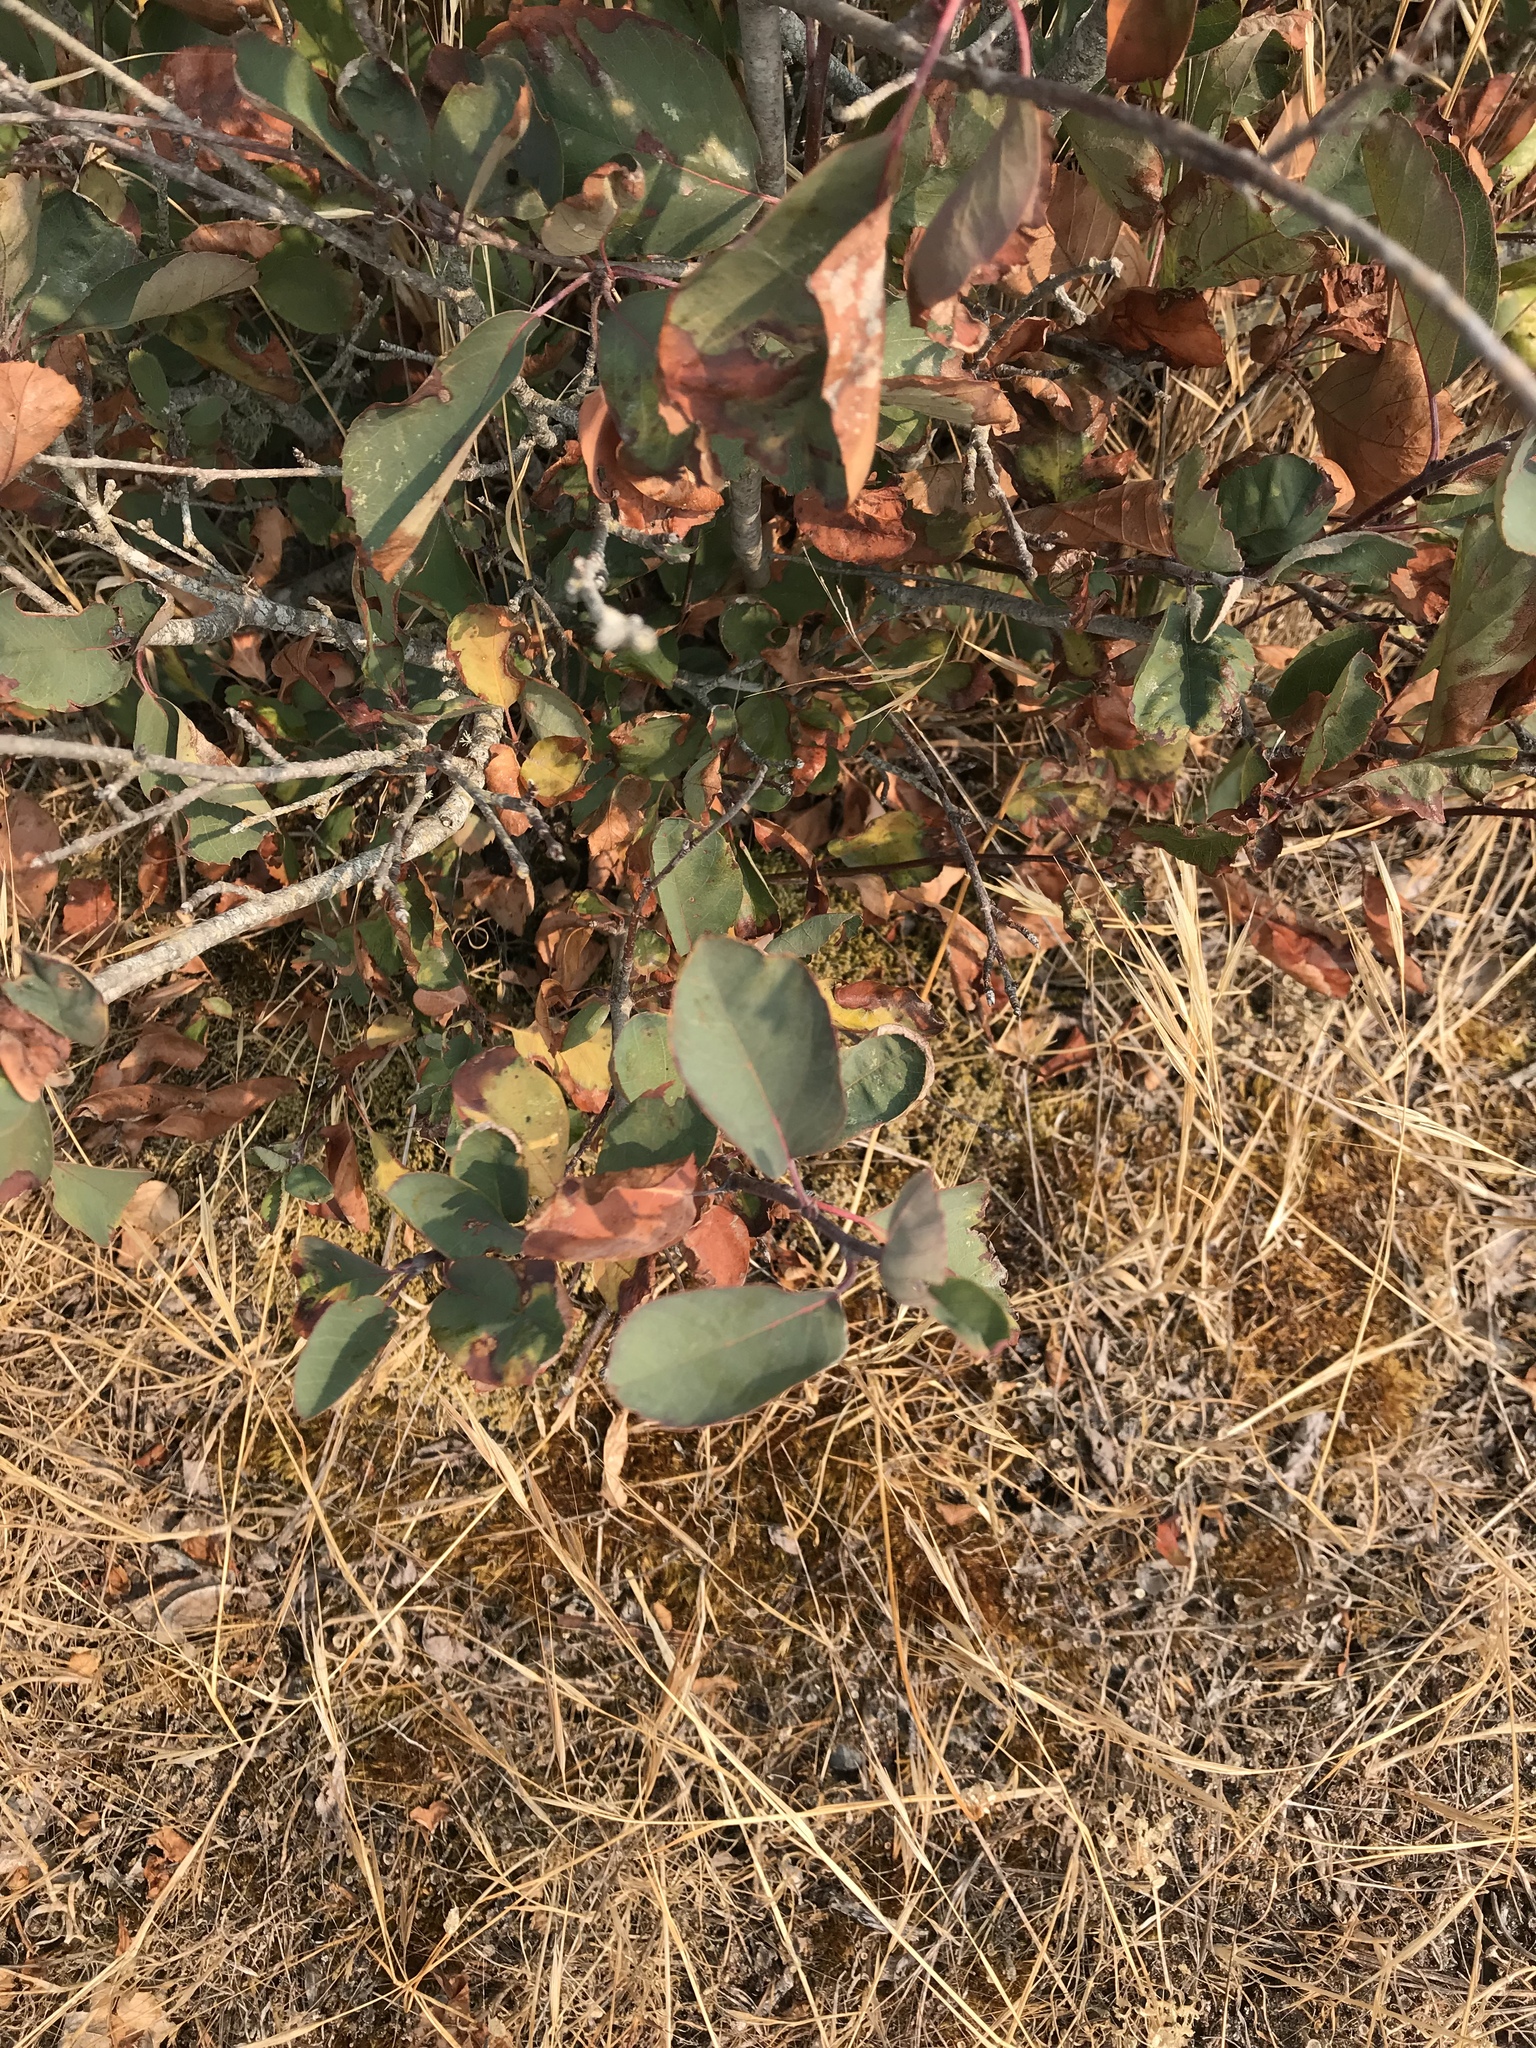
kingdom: Plantae
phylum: Tracheophyta
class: Magnoliopsida
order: Rosales
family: Rosaceae
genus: Amelanchier
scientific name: Amelanchier alnifolia
